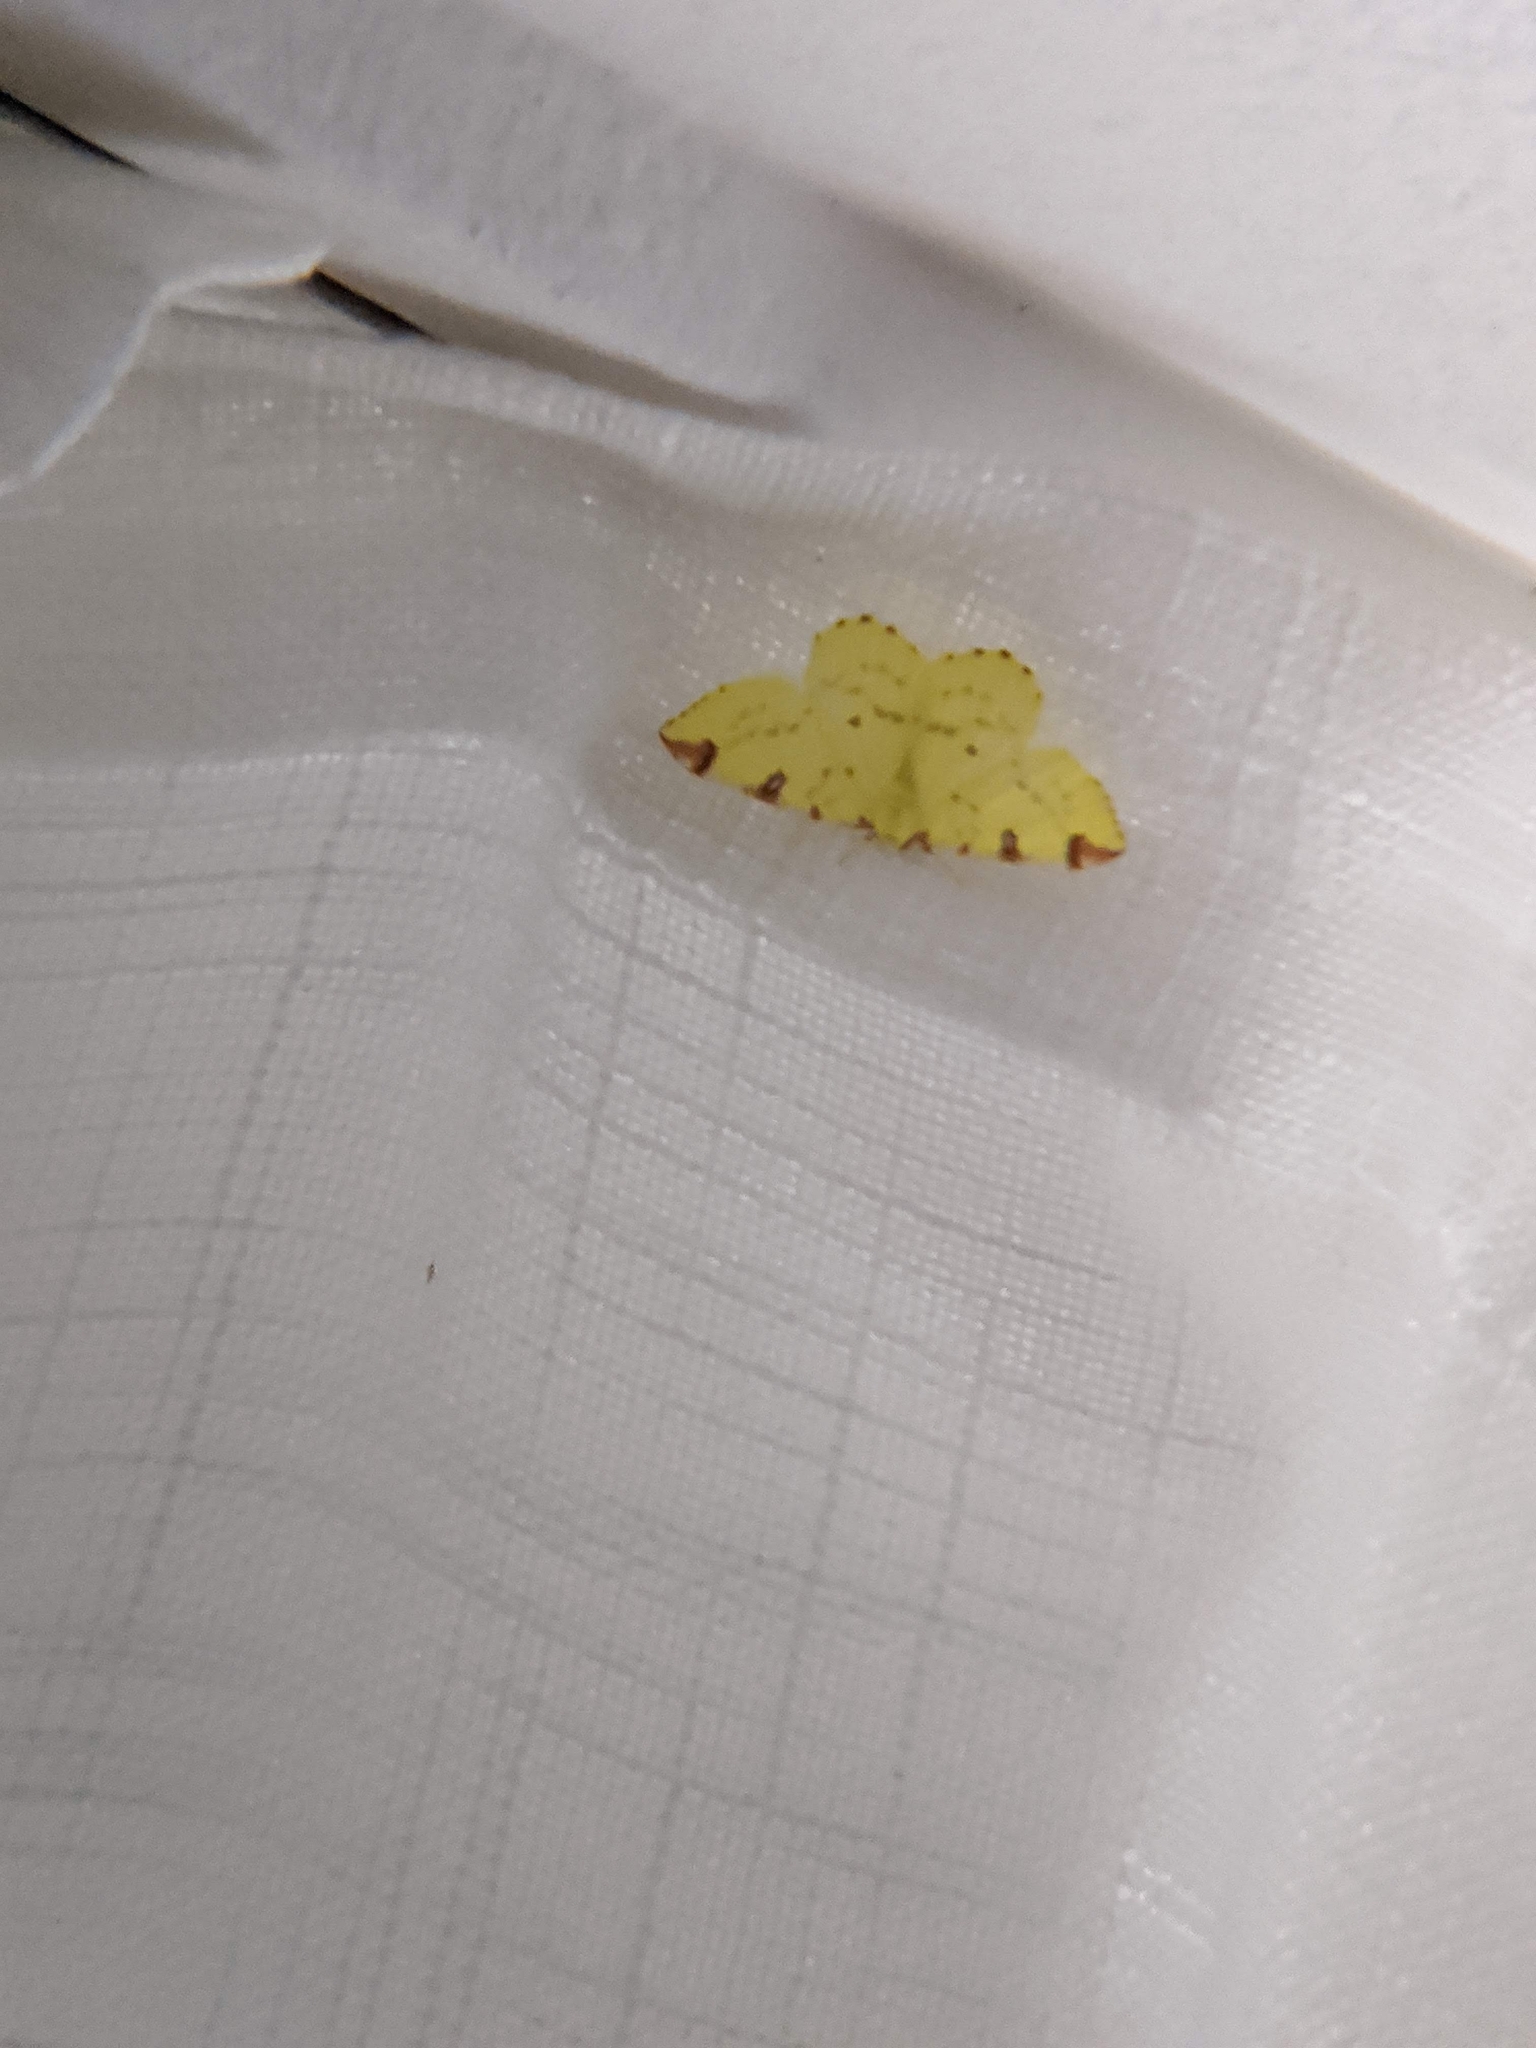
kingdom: Animalia
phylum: Arthropoda
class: Insecta
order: Lepidoptera
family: Geometridae
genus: Opisthograptis
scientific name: Opisthograptis luteolata
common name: Brimstone moth
